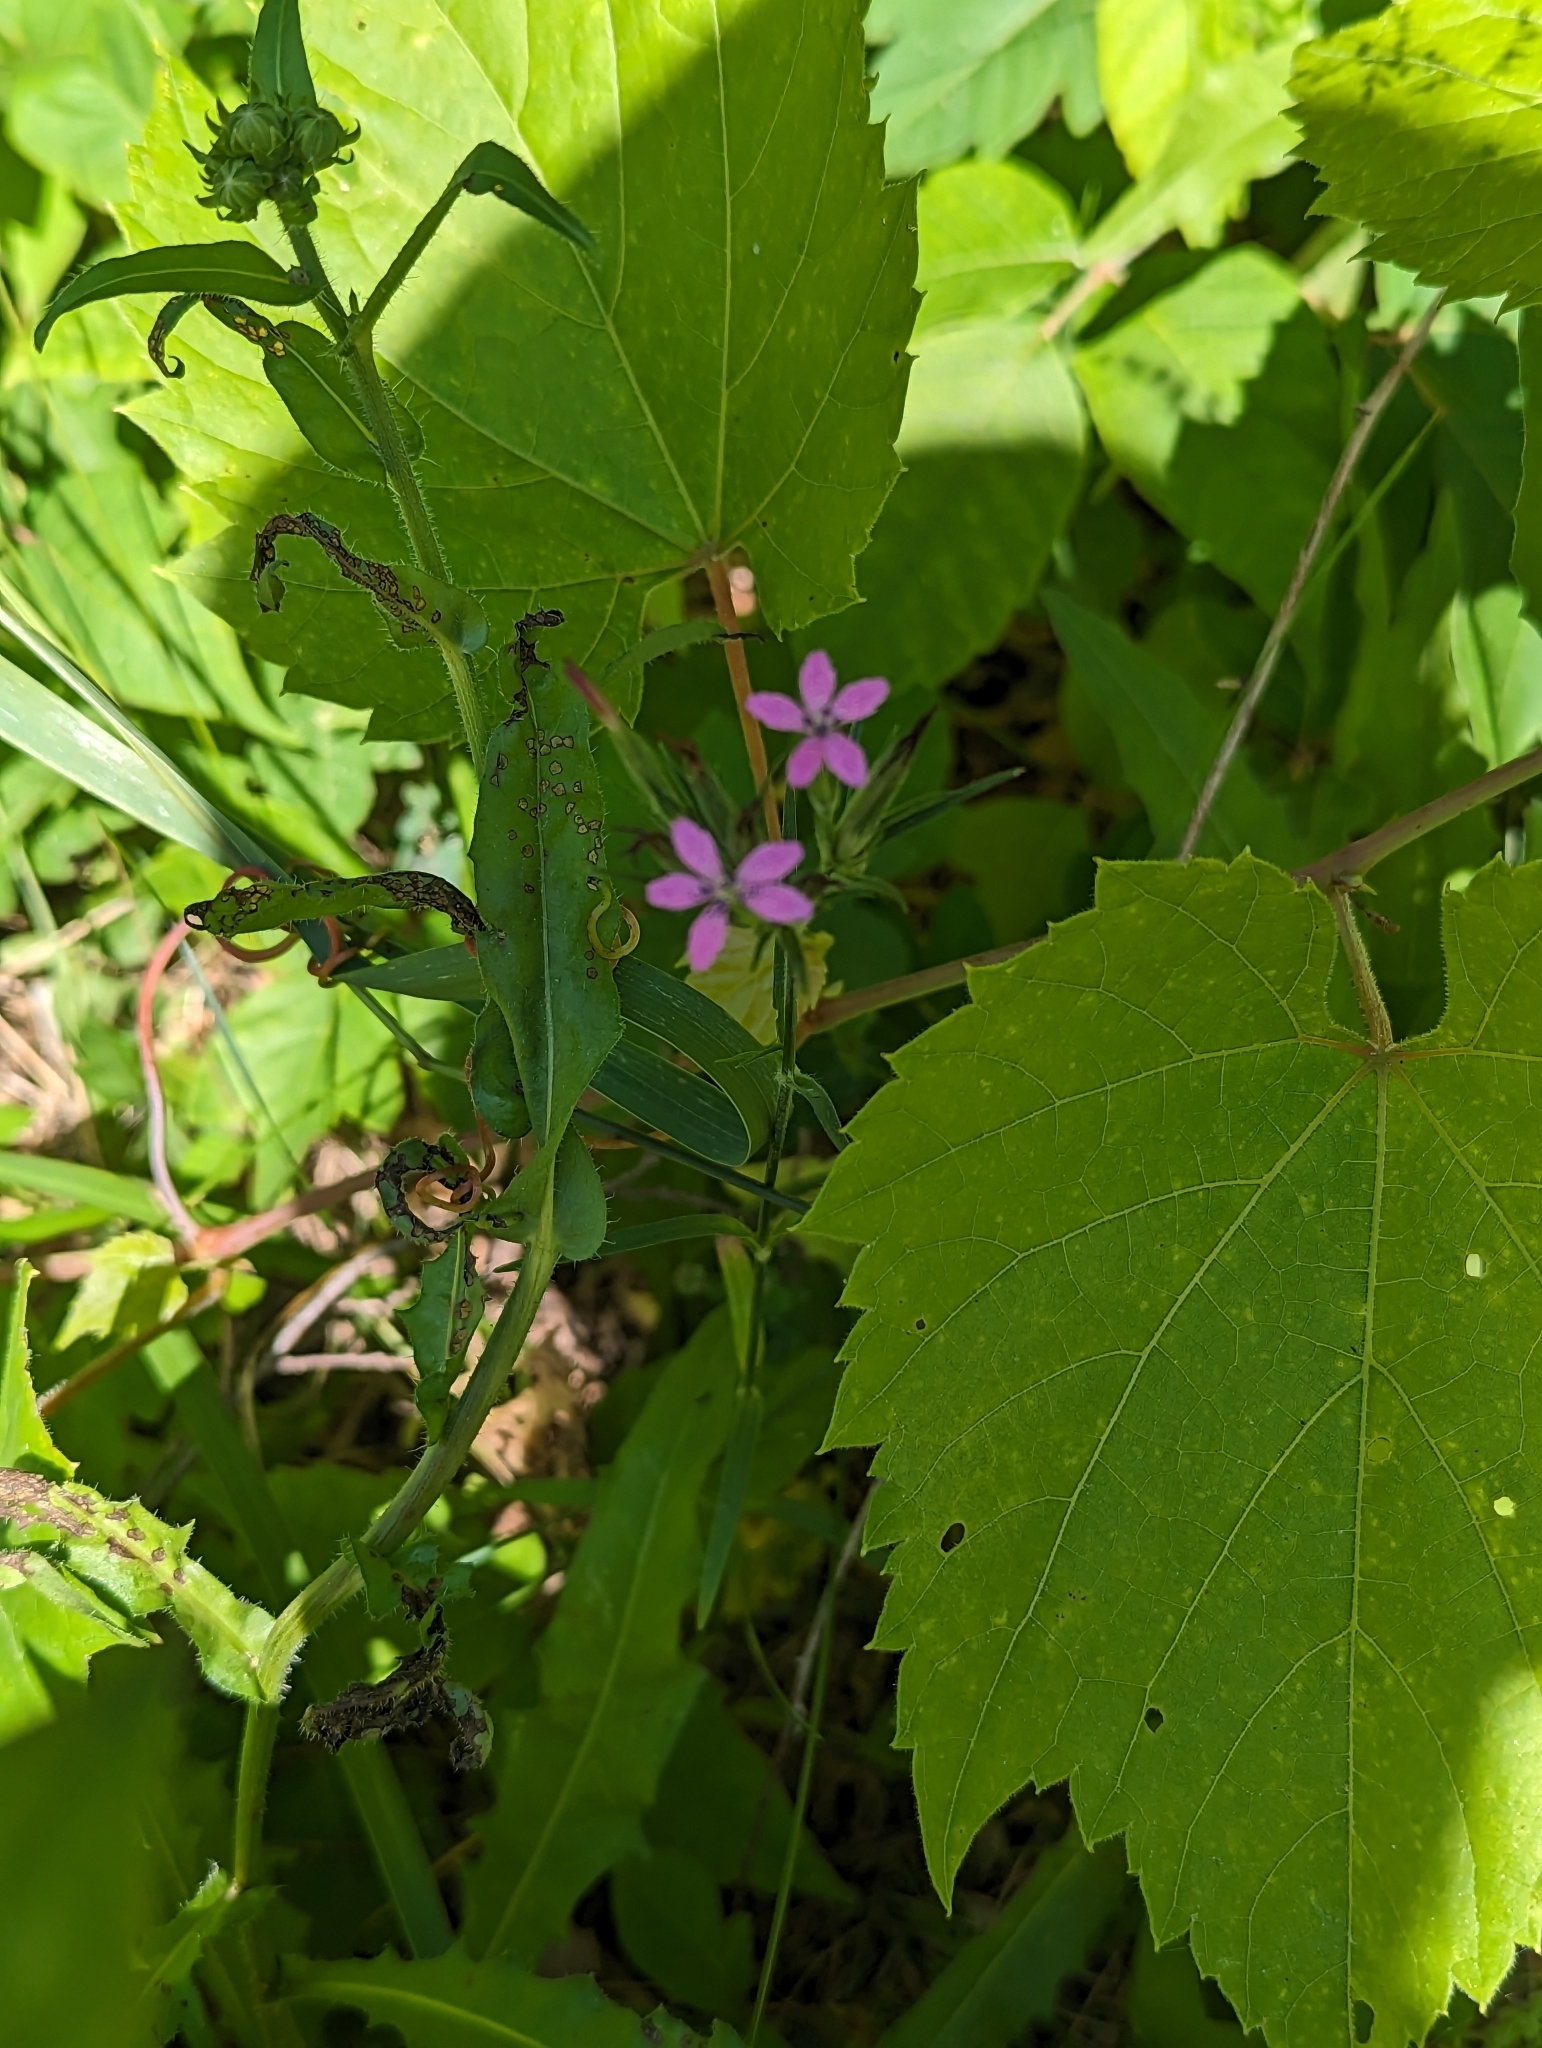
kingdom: Plantae
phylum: Tracheophyta
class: Magnoliopsida
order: Caryophyllales
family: Caryophyllaceae
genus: Dianthus
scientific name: Dianthus armeria
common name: Deptford pink
